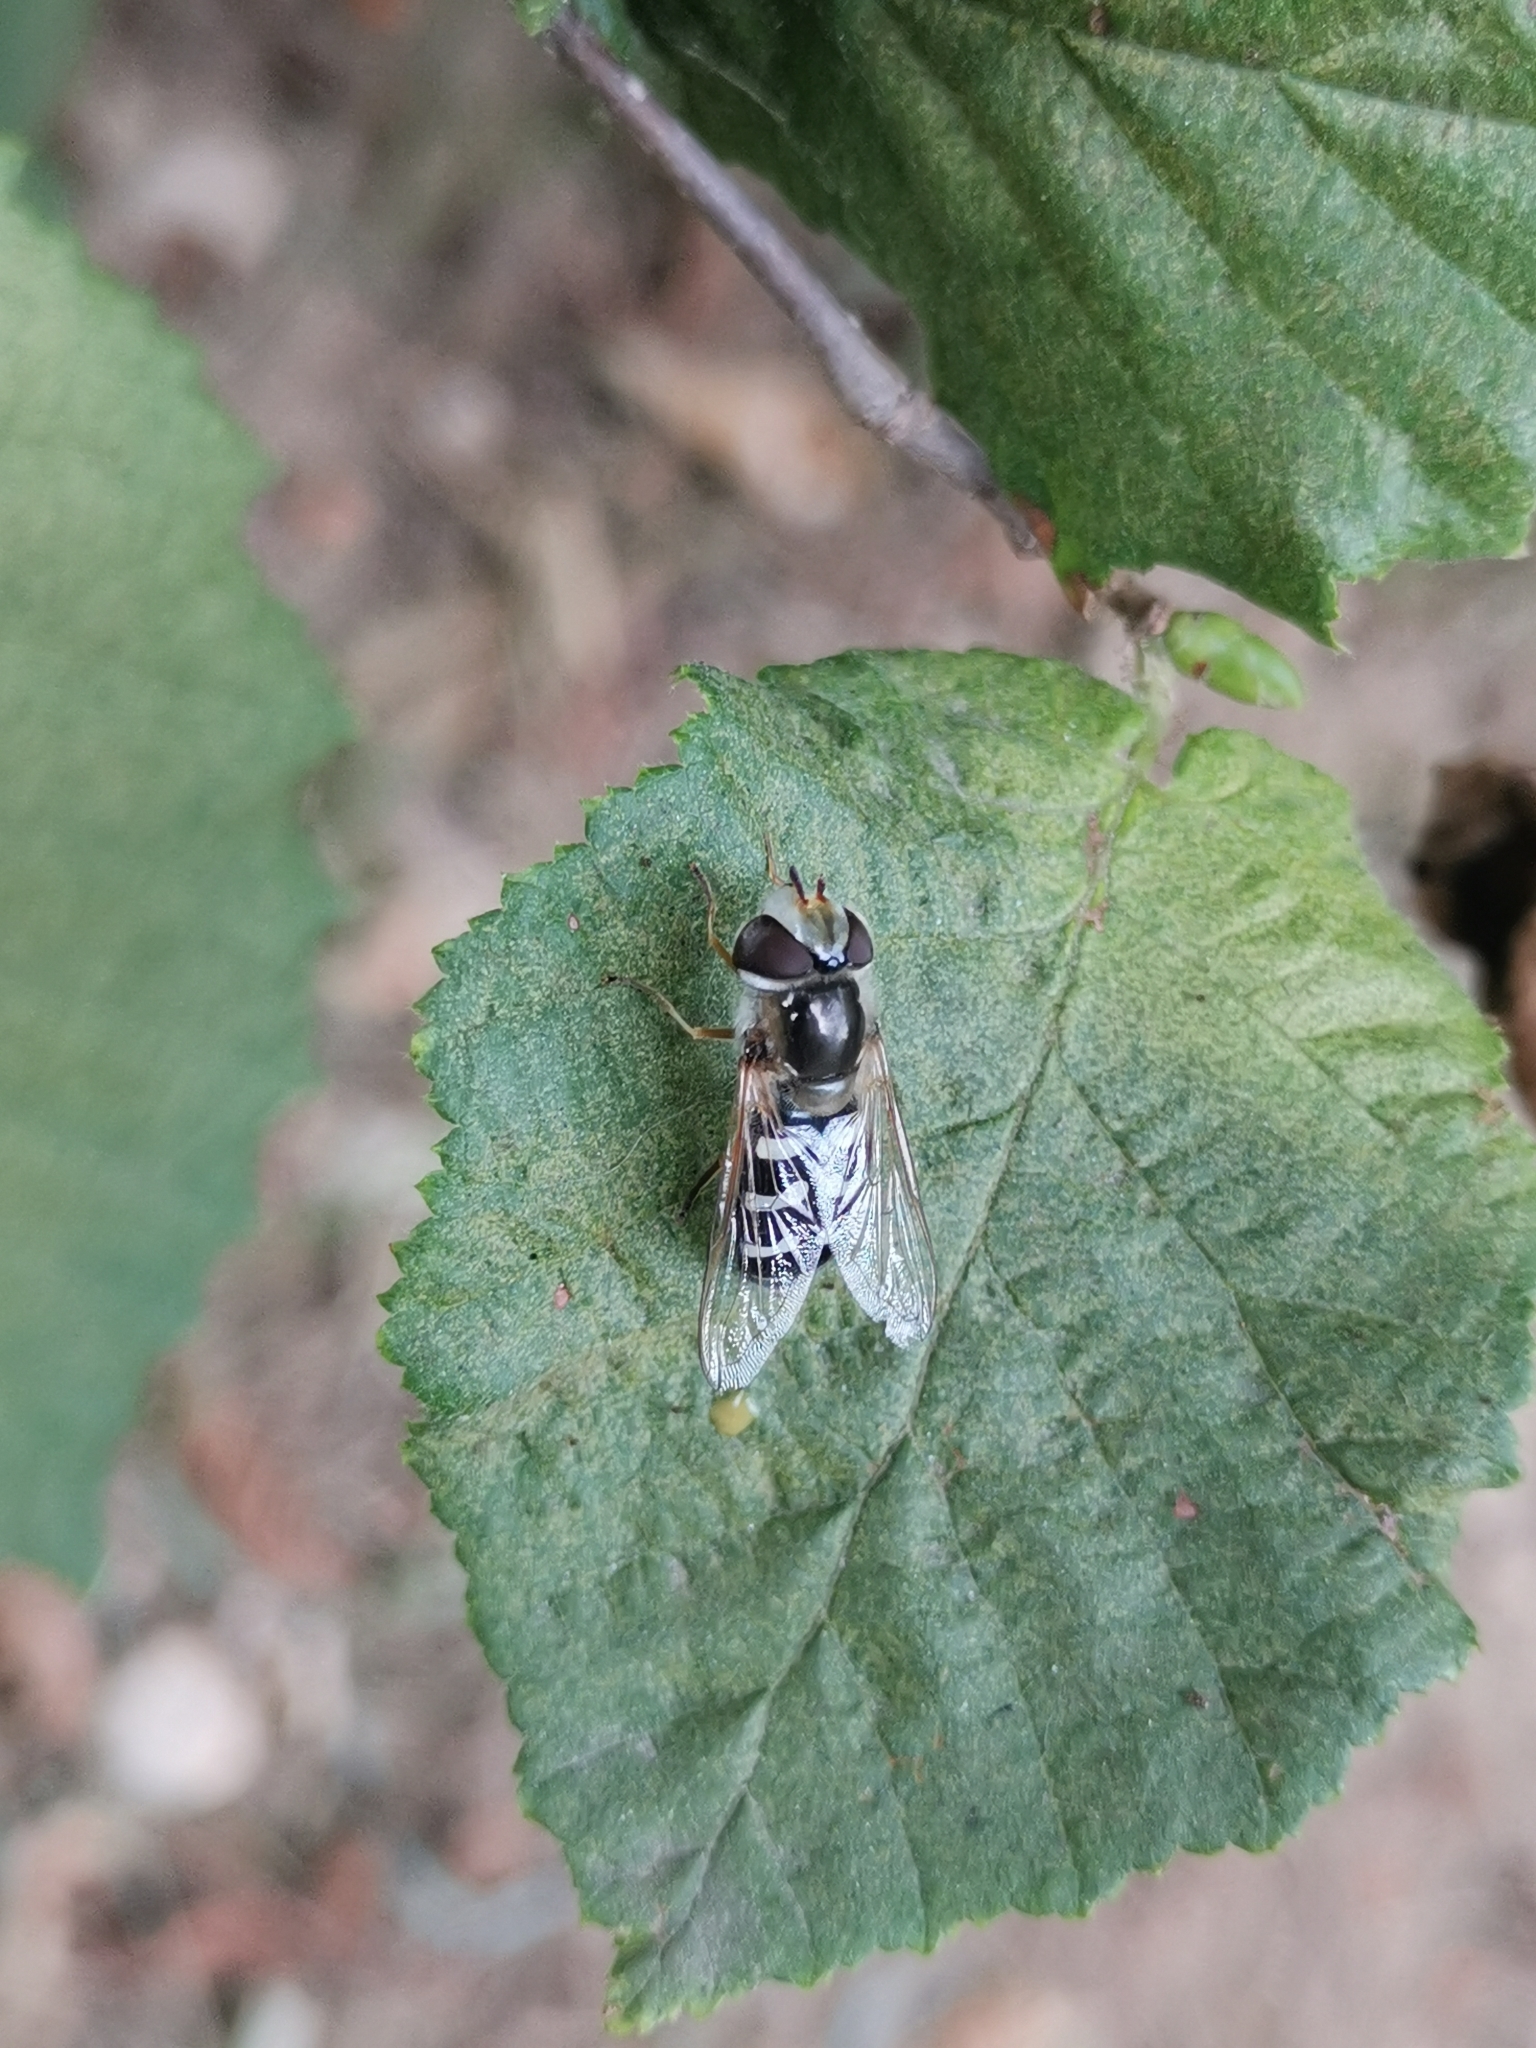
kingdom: Animalia
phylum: Arthropoda
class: Insecta
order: Diptera
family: Syrphidae
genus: Scaeva
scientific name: Scaeva pyrastri
